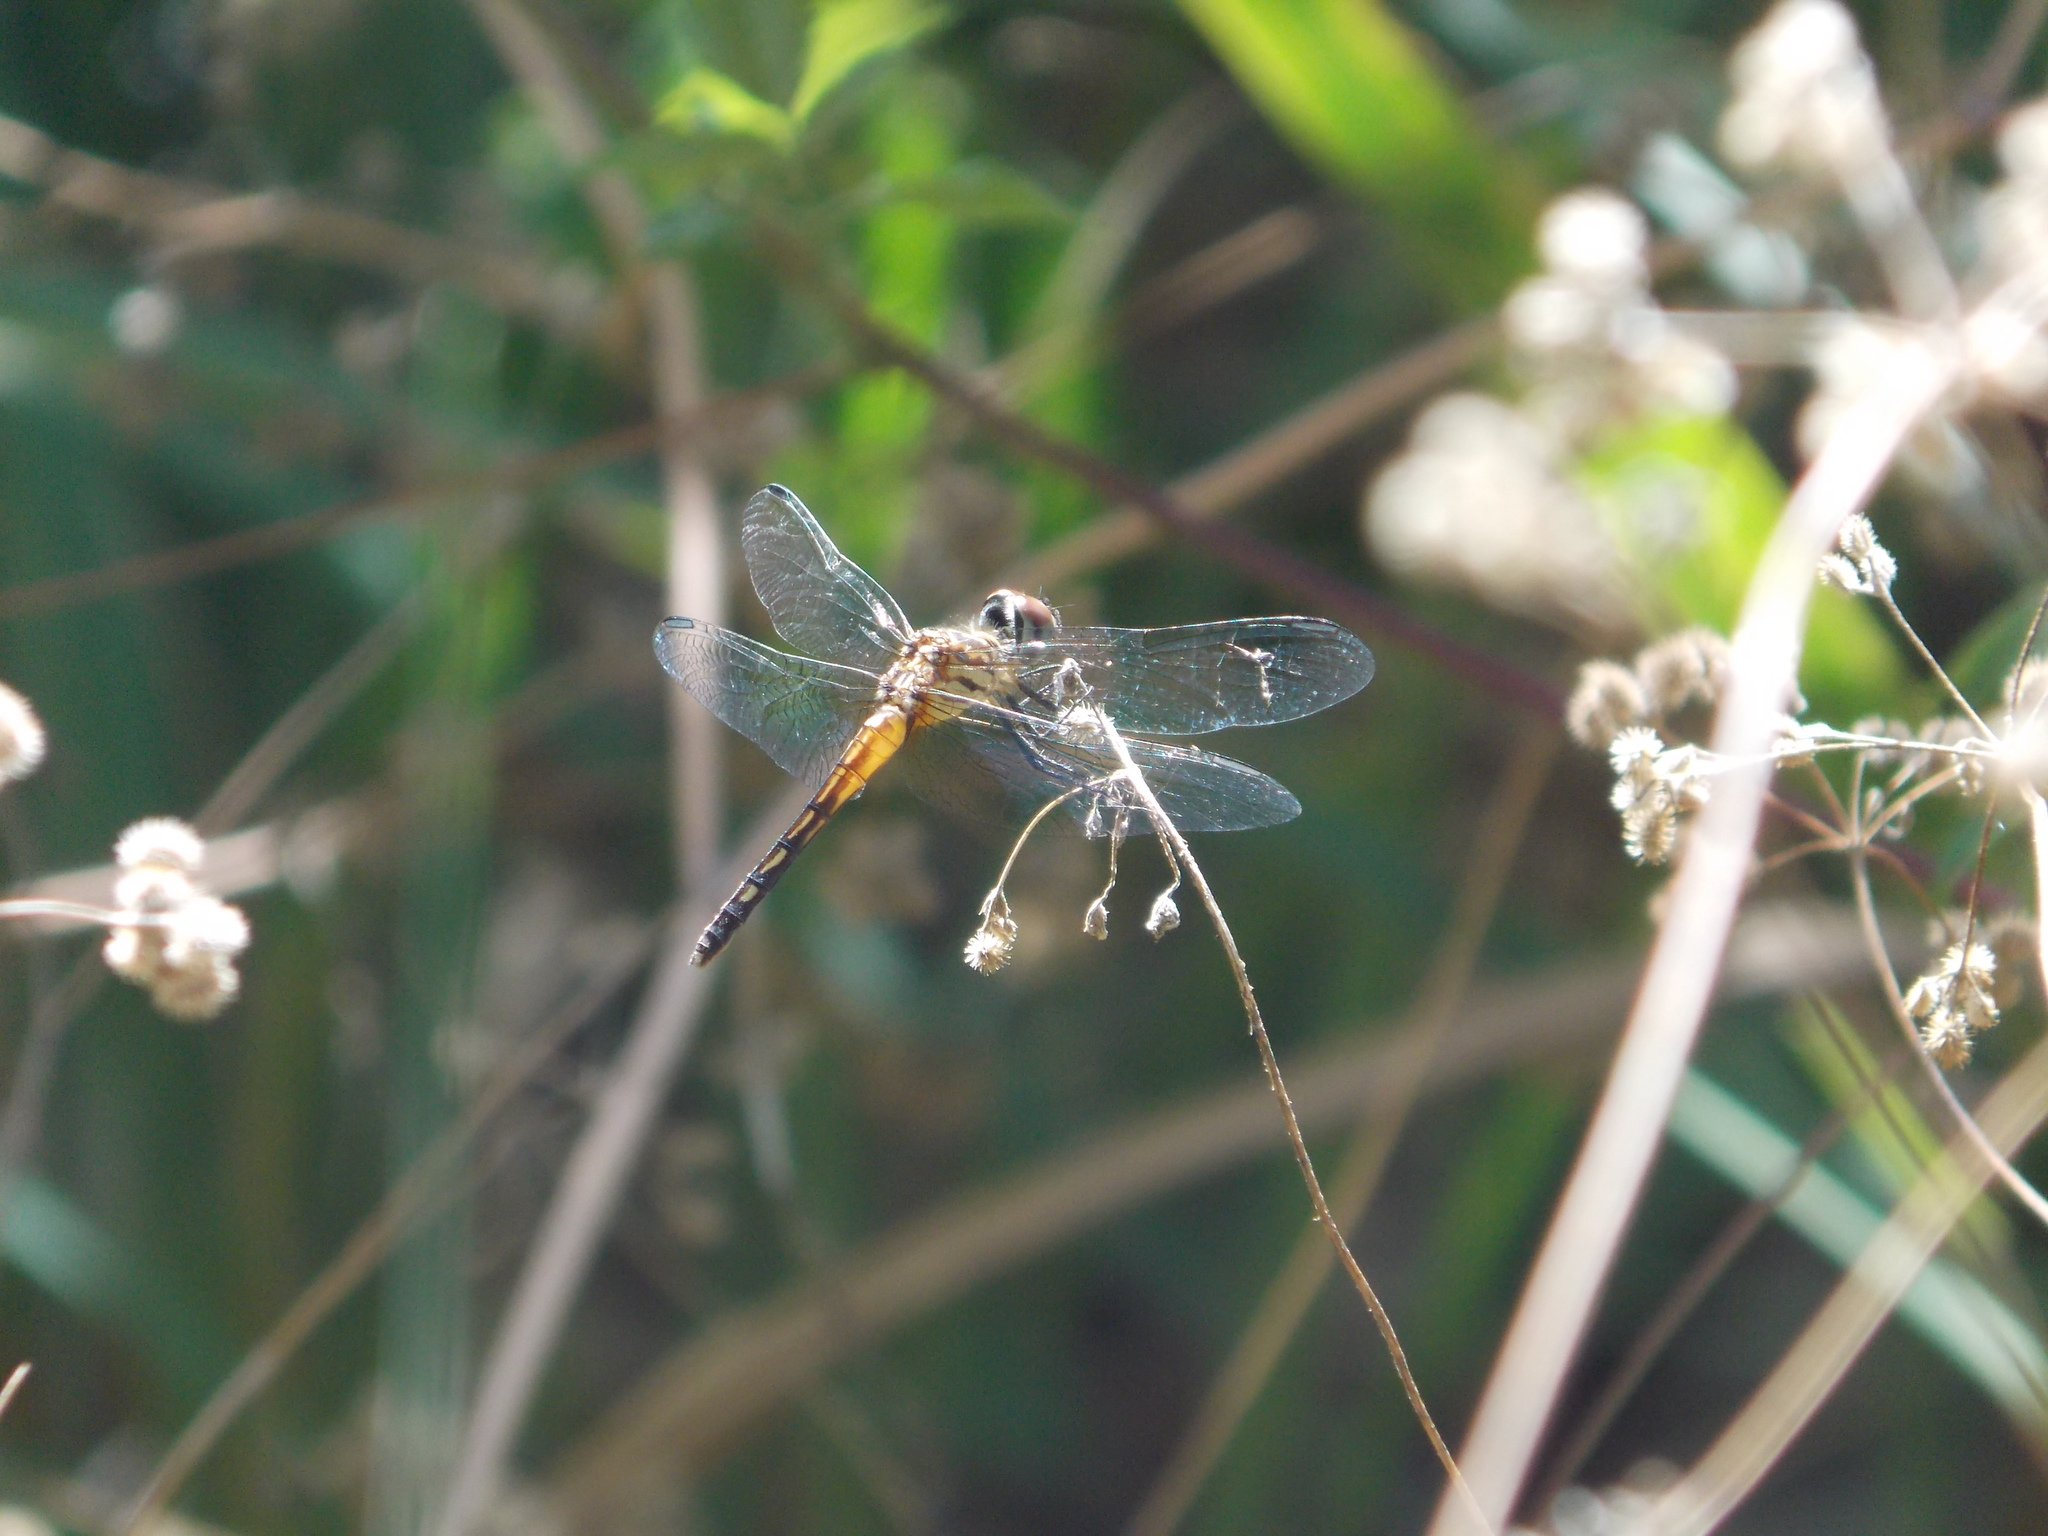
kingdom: Animalia
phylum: Arthropoda
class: Insecta
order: Odonata
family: Libellulidae
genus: Pachydiplax
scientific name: Pachydiplax longipennis
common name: Blue dasher
